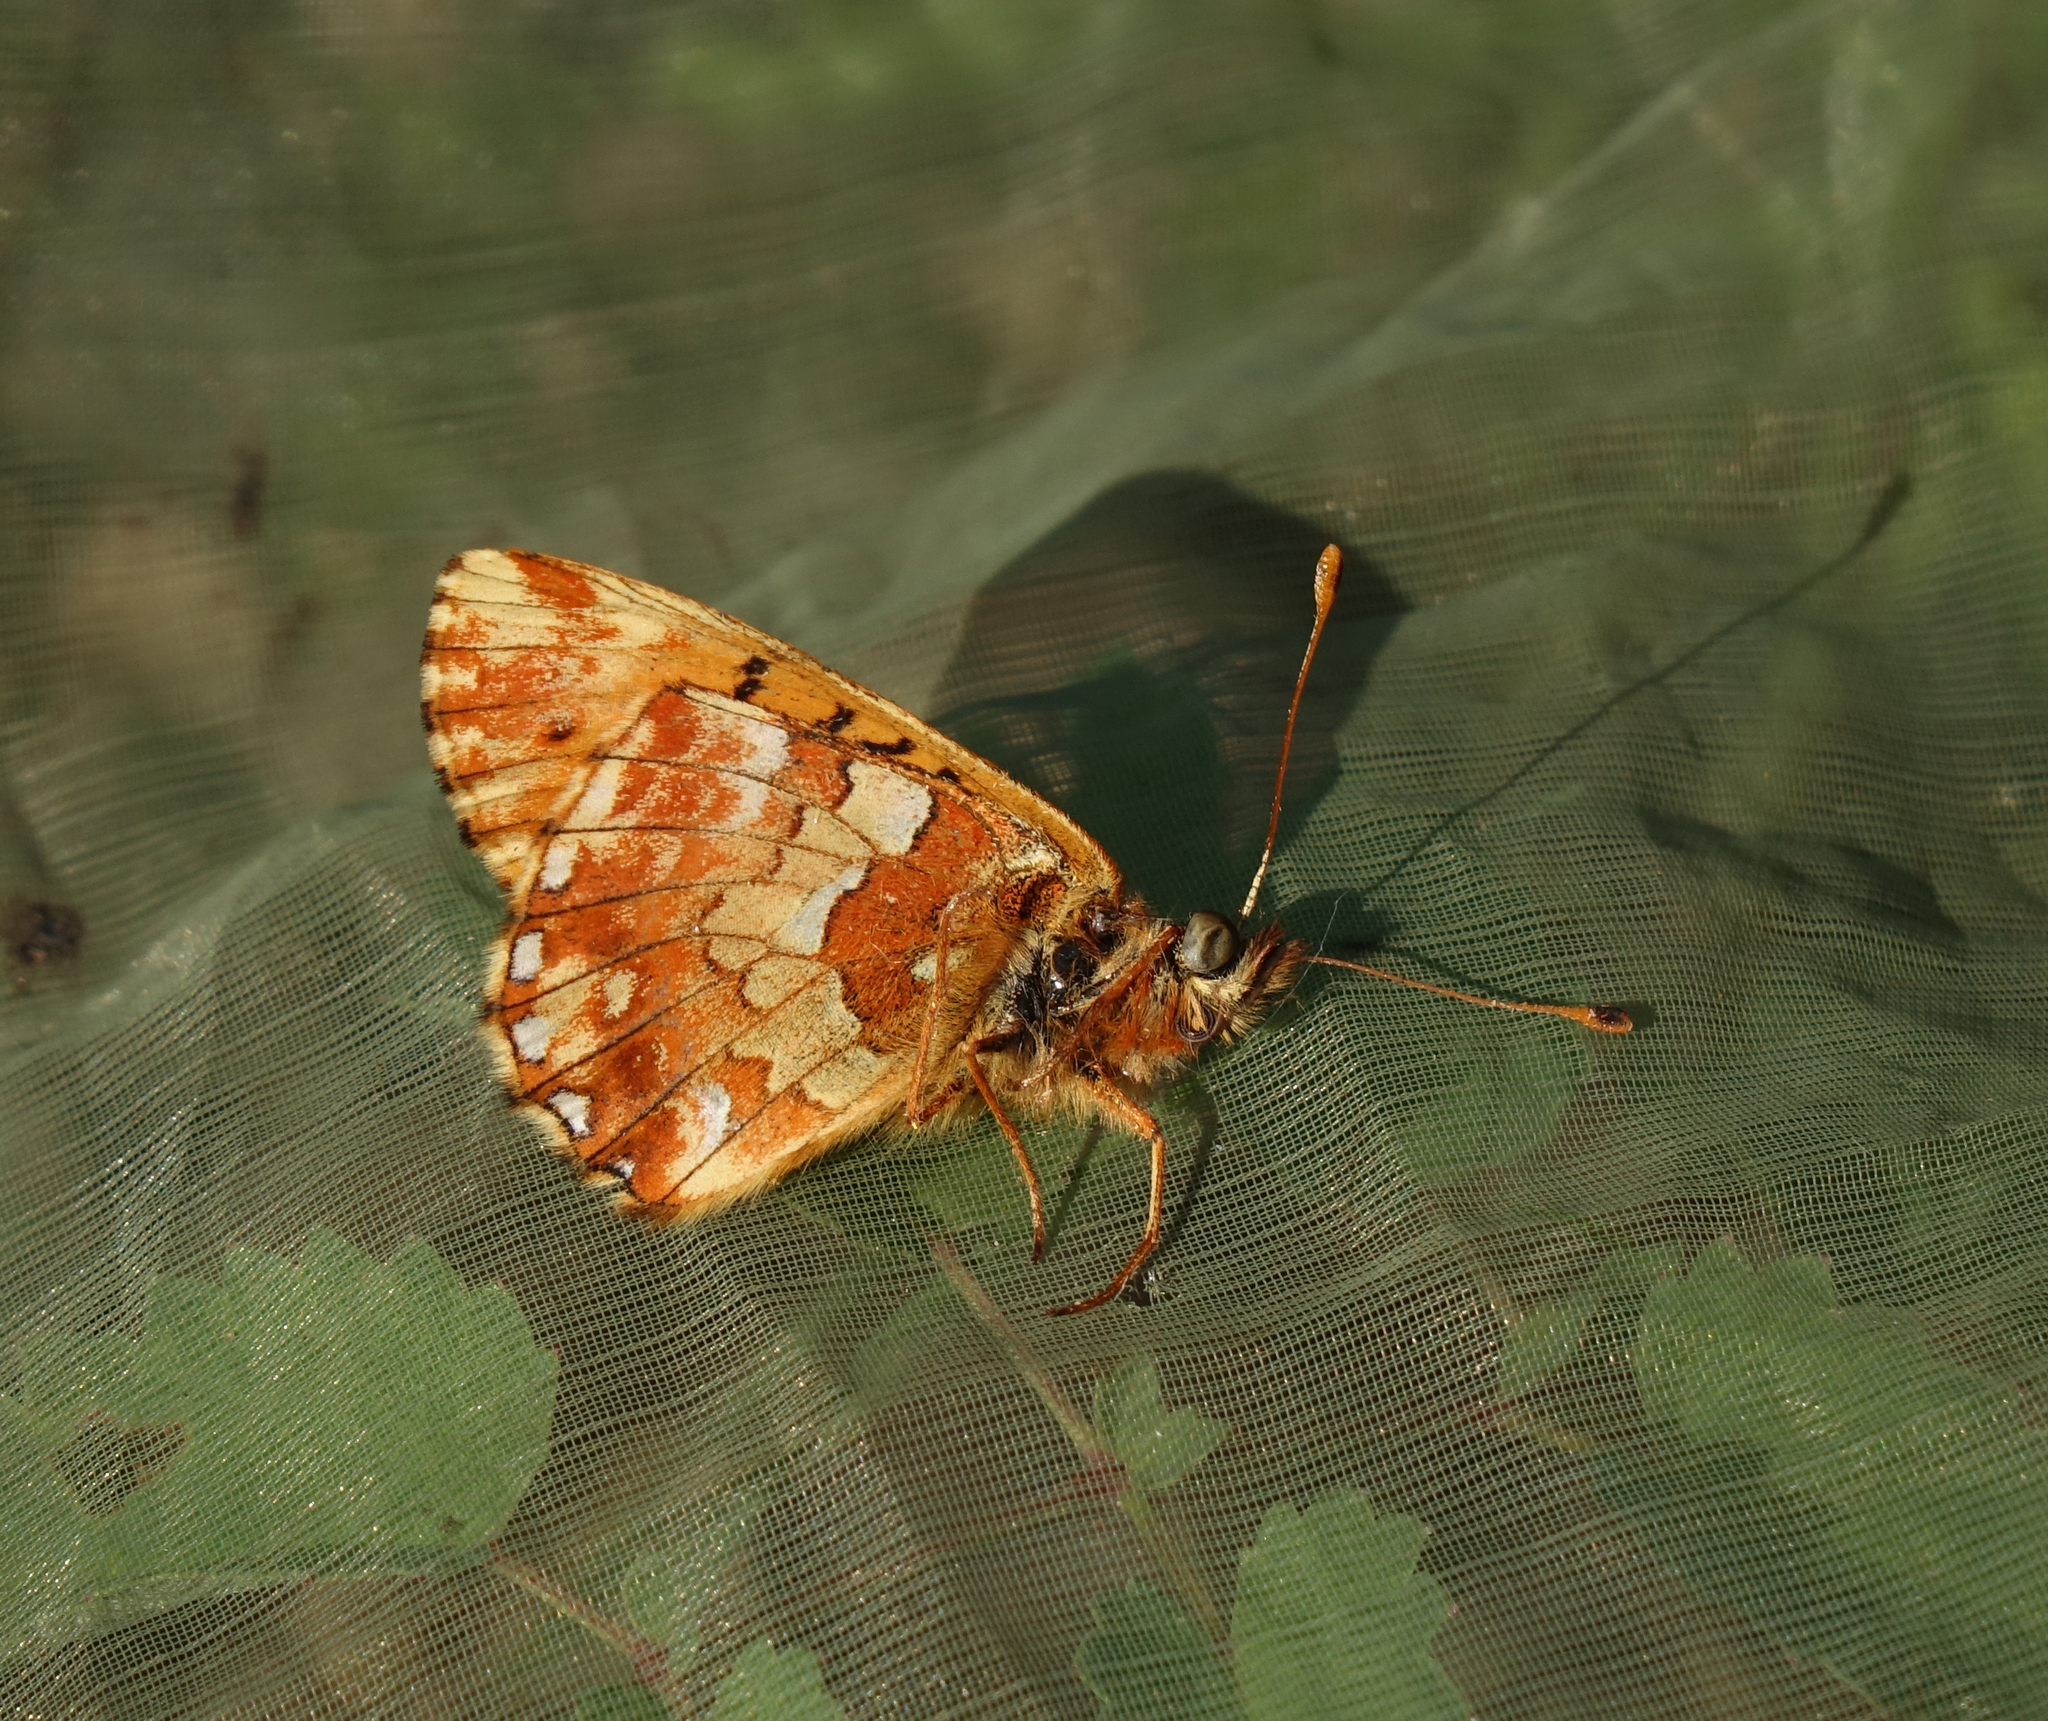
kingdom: Animalia
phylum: Arthropoda
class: Insecta
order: Lepidoptera
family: Nymphalidae
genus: Boloria
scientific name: Boloria
